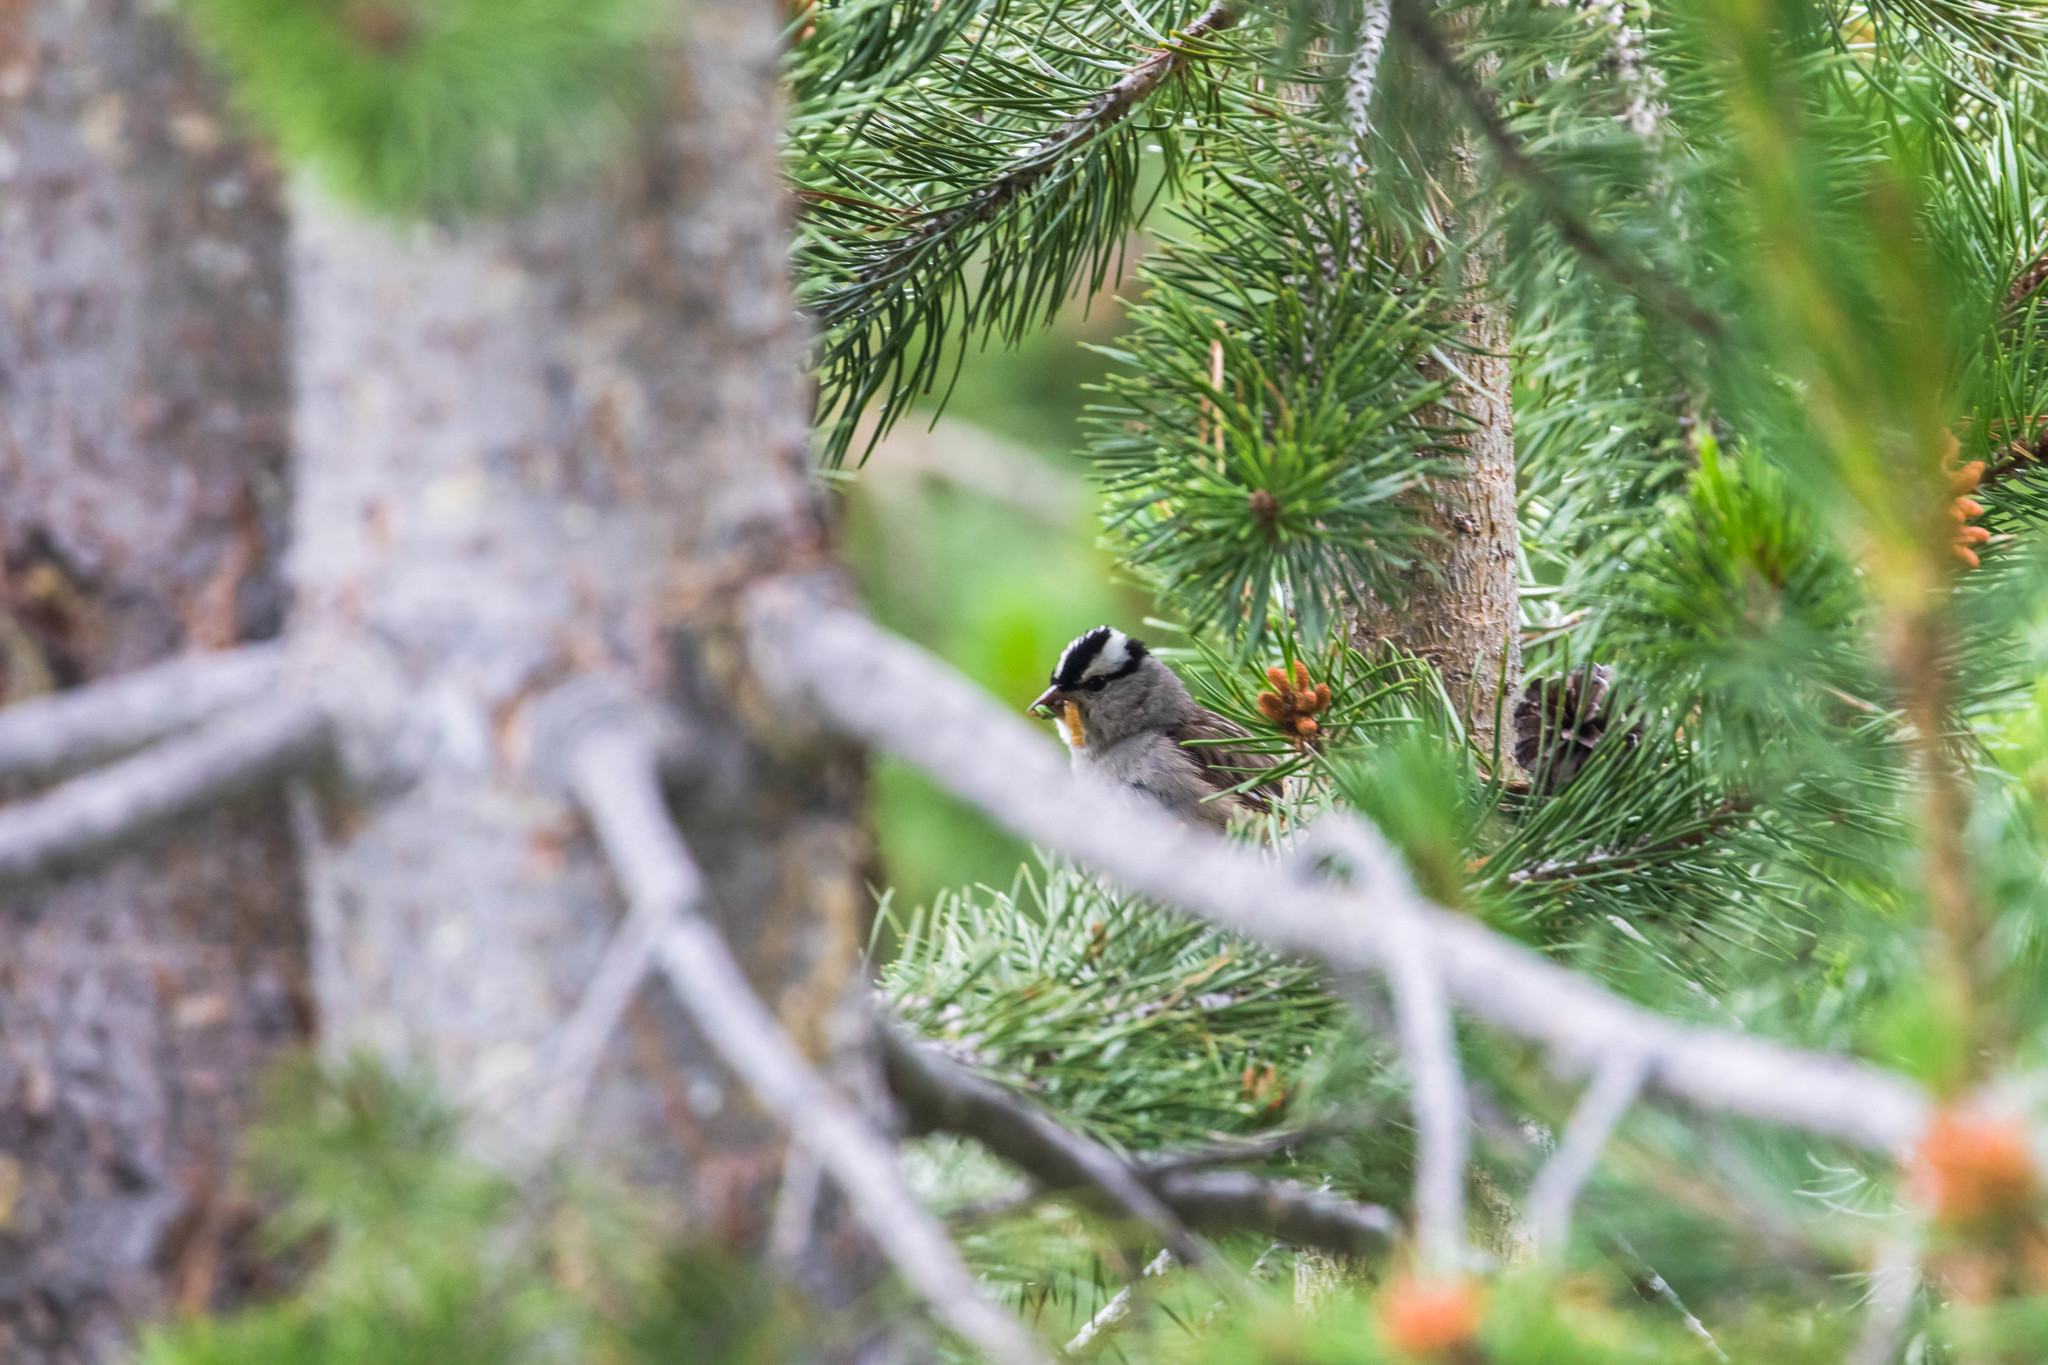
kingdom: Animalia
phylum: Chordata
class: Aves
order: Passeriformes
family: Passerellidae
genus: Zonotrichia
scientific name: Zonotrichia leucophrys
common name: White-crowned sparrow
